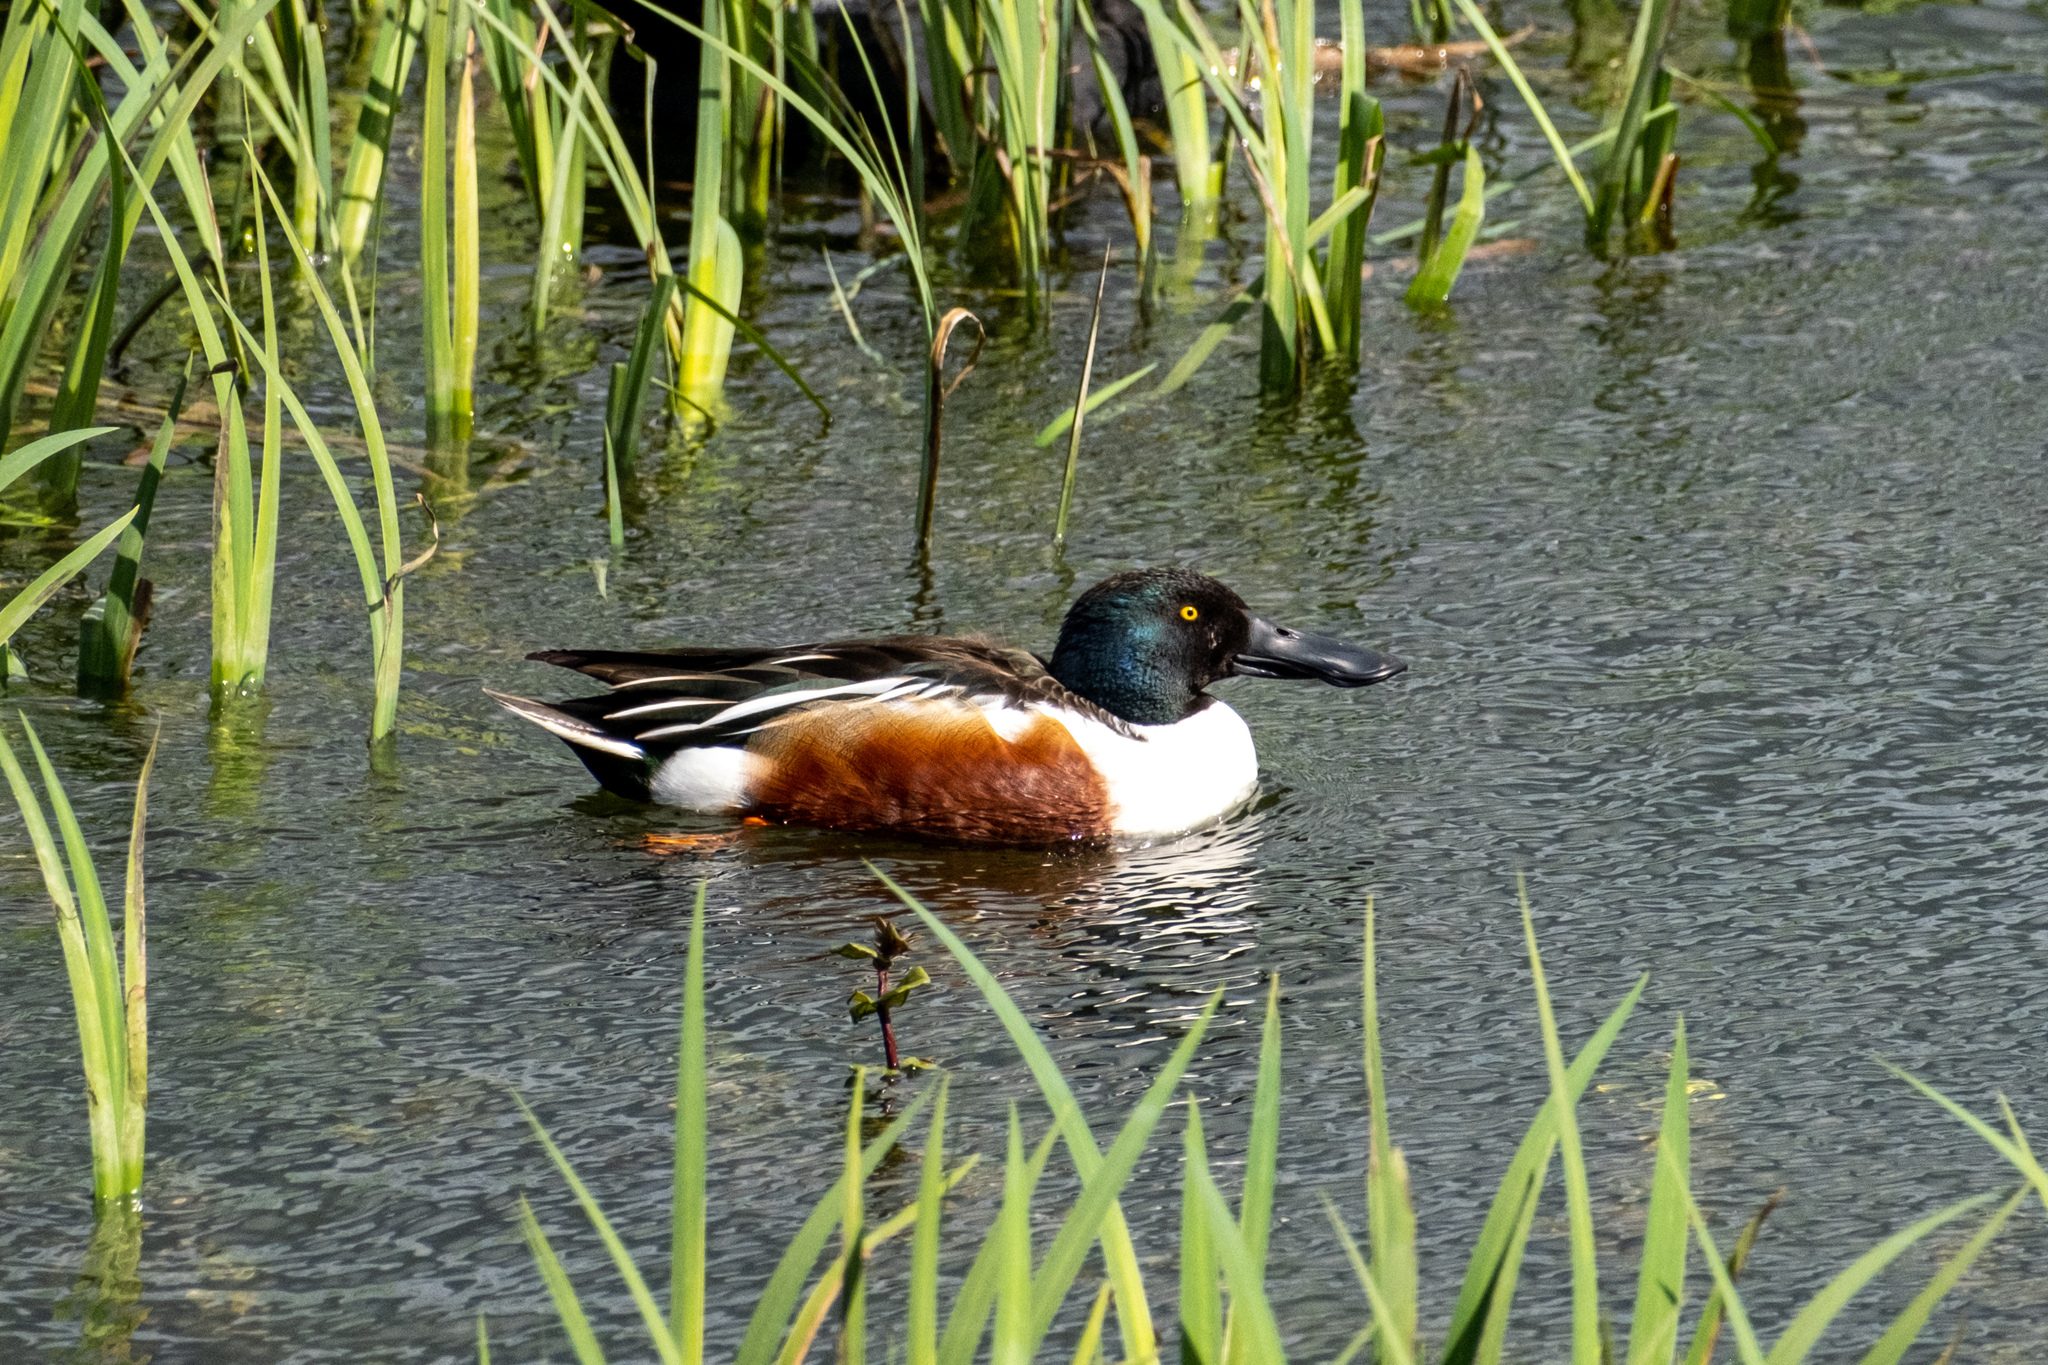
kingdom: Animalia
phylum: Chordata
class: Aves
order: Anseriformes
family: Anatidae
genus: Spatula
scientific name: Spatula clypeata
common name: Northern shoveler
